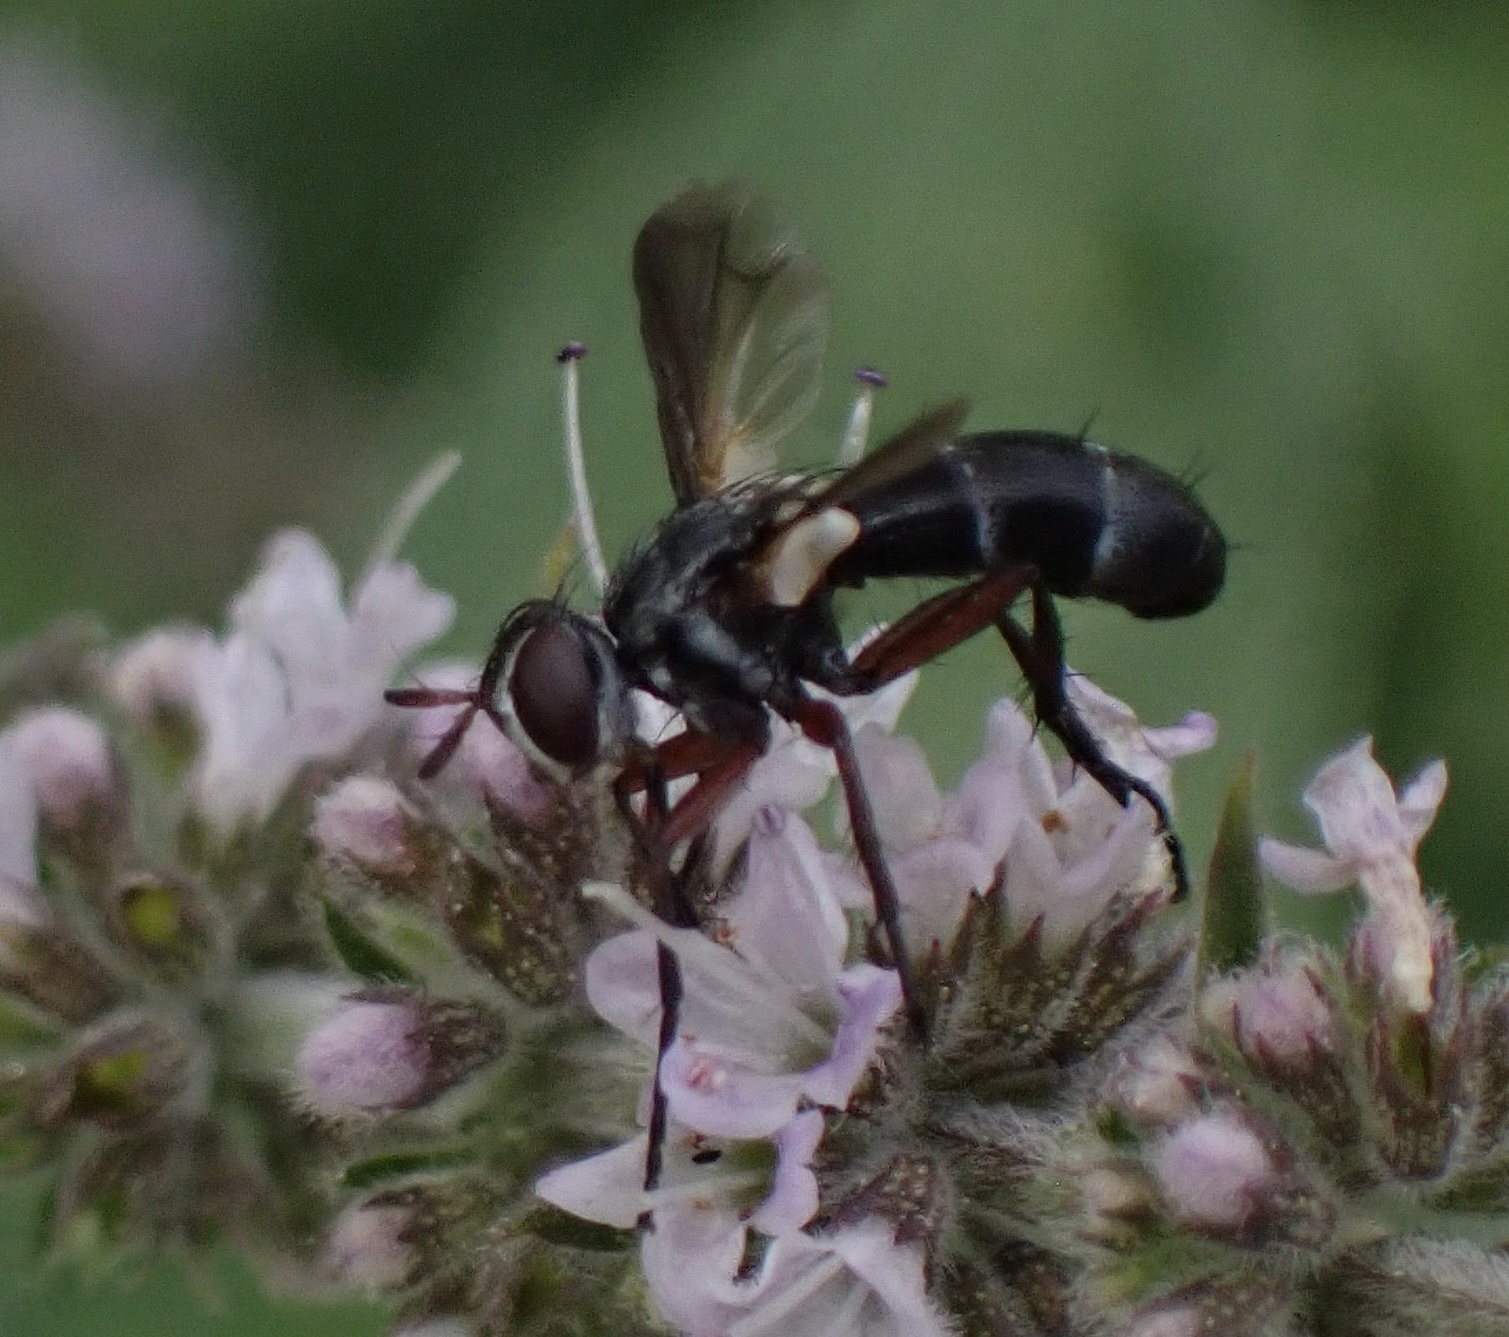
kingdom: Animalia
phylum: Arthropoda
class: Insecta
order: Diptera
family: Tachinidae
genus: Cylindromyia
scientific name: Cylindromyia rufipes
